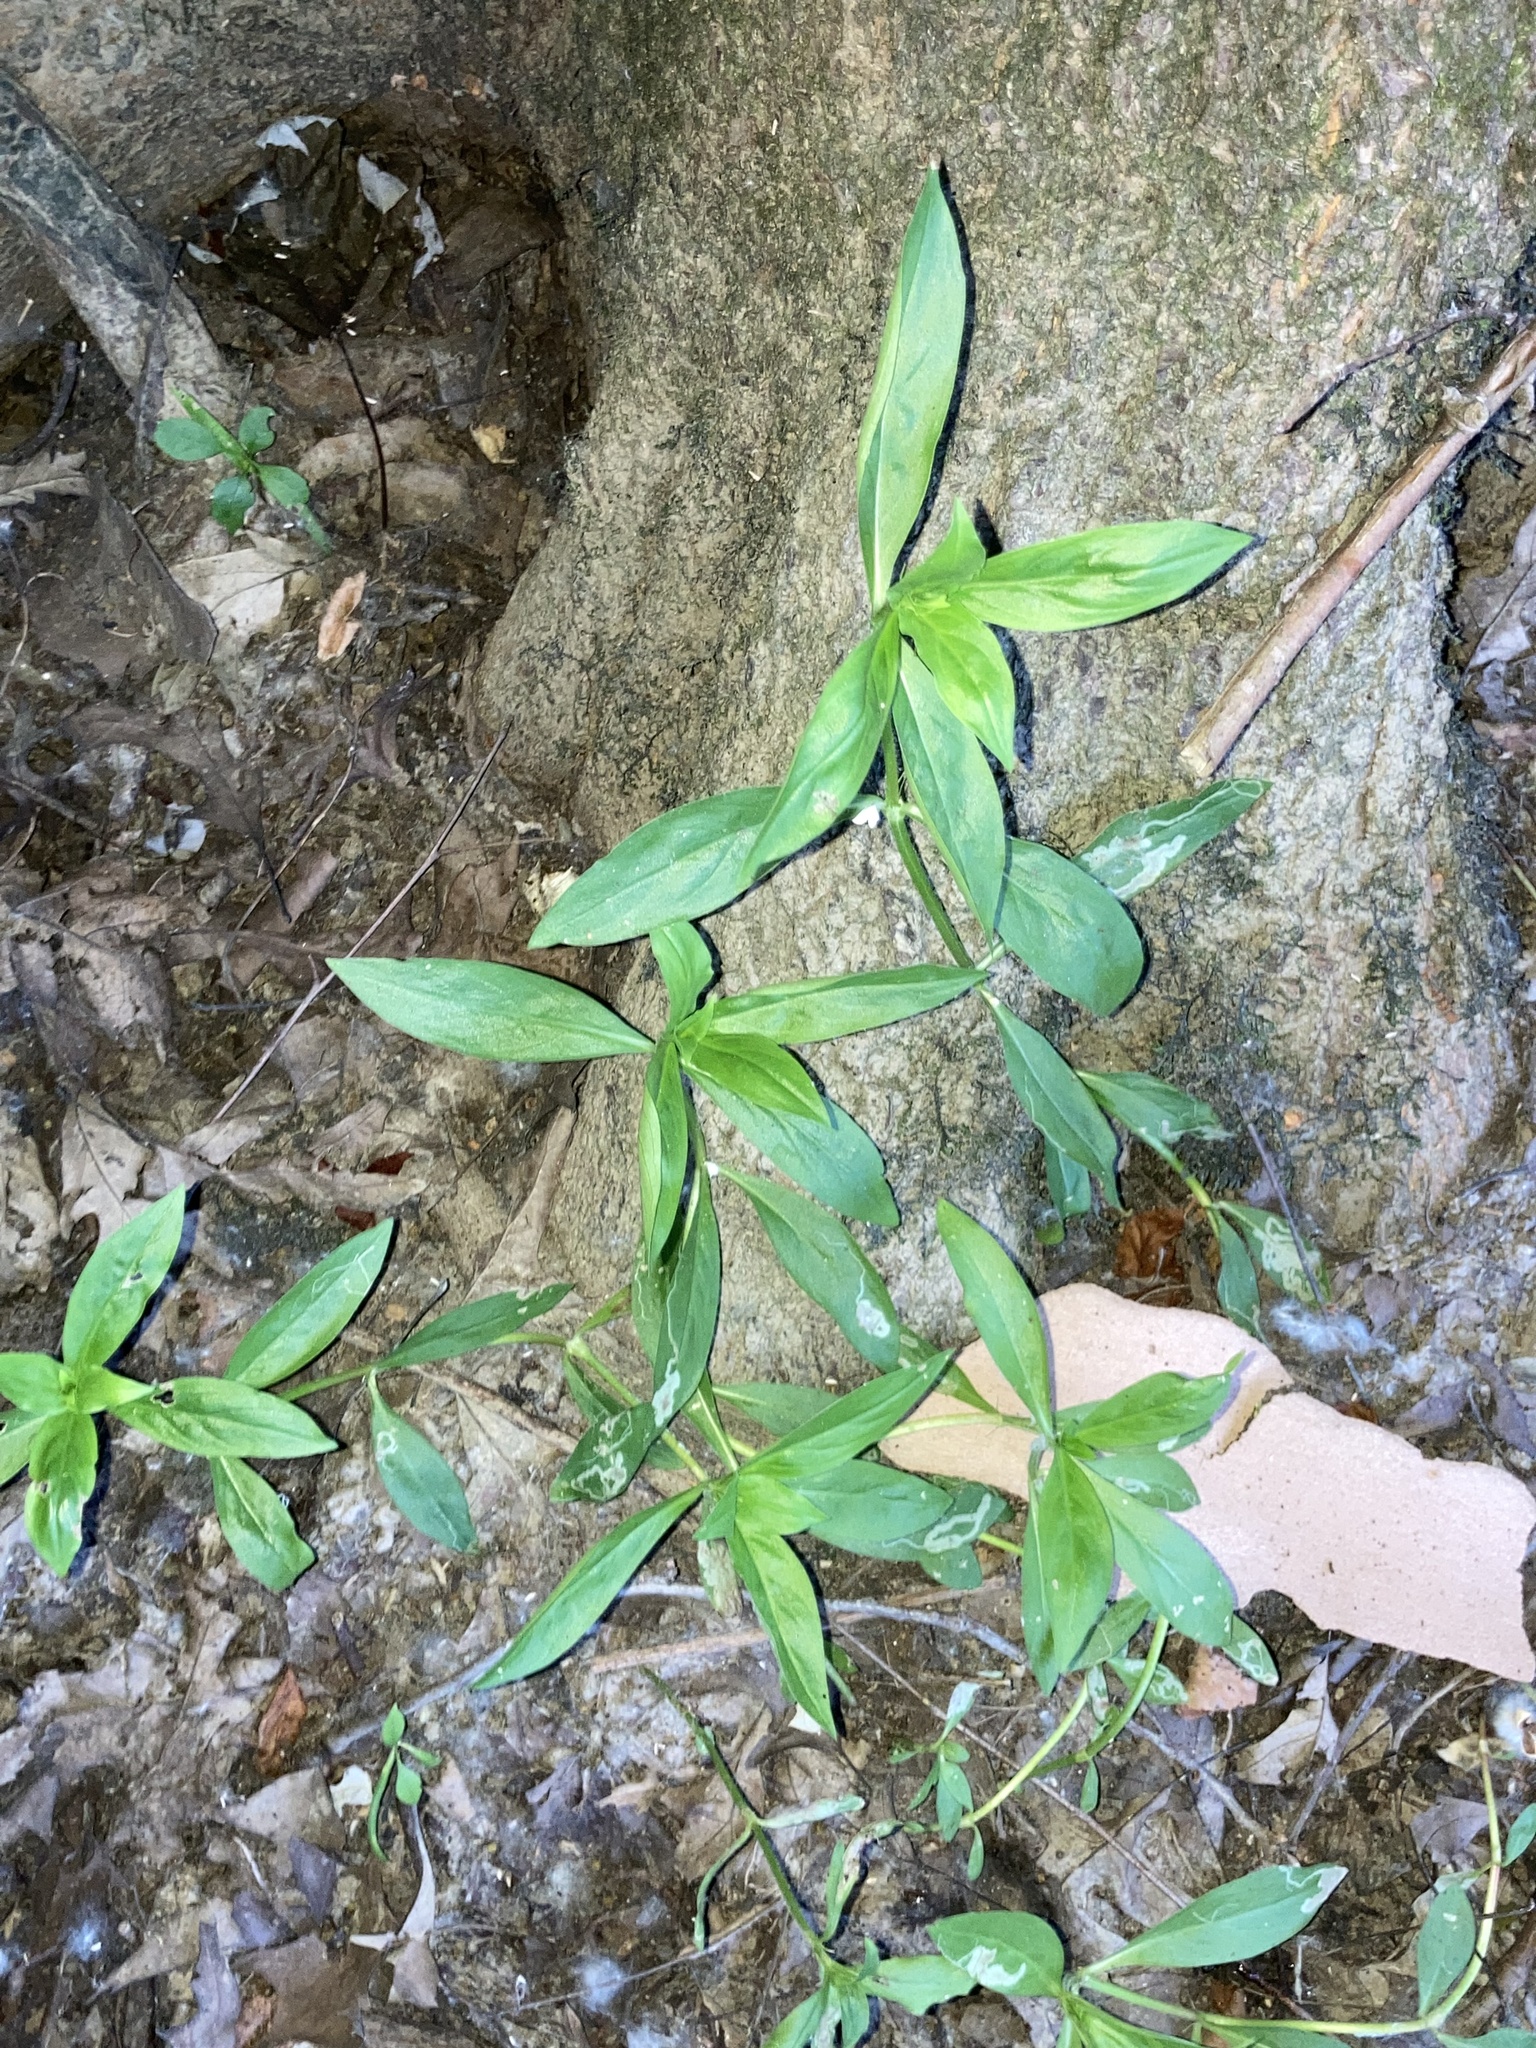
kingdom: Plantae
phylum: Tracheophyta
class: Magnoliopsida
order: Gentianales
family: Rubiaceae
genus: Diodia
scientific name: Diodia virginiana
